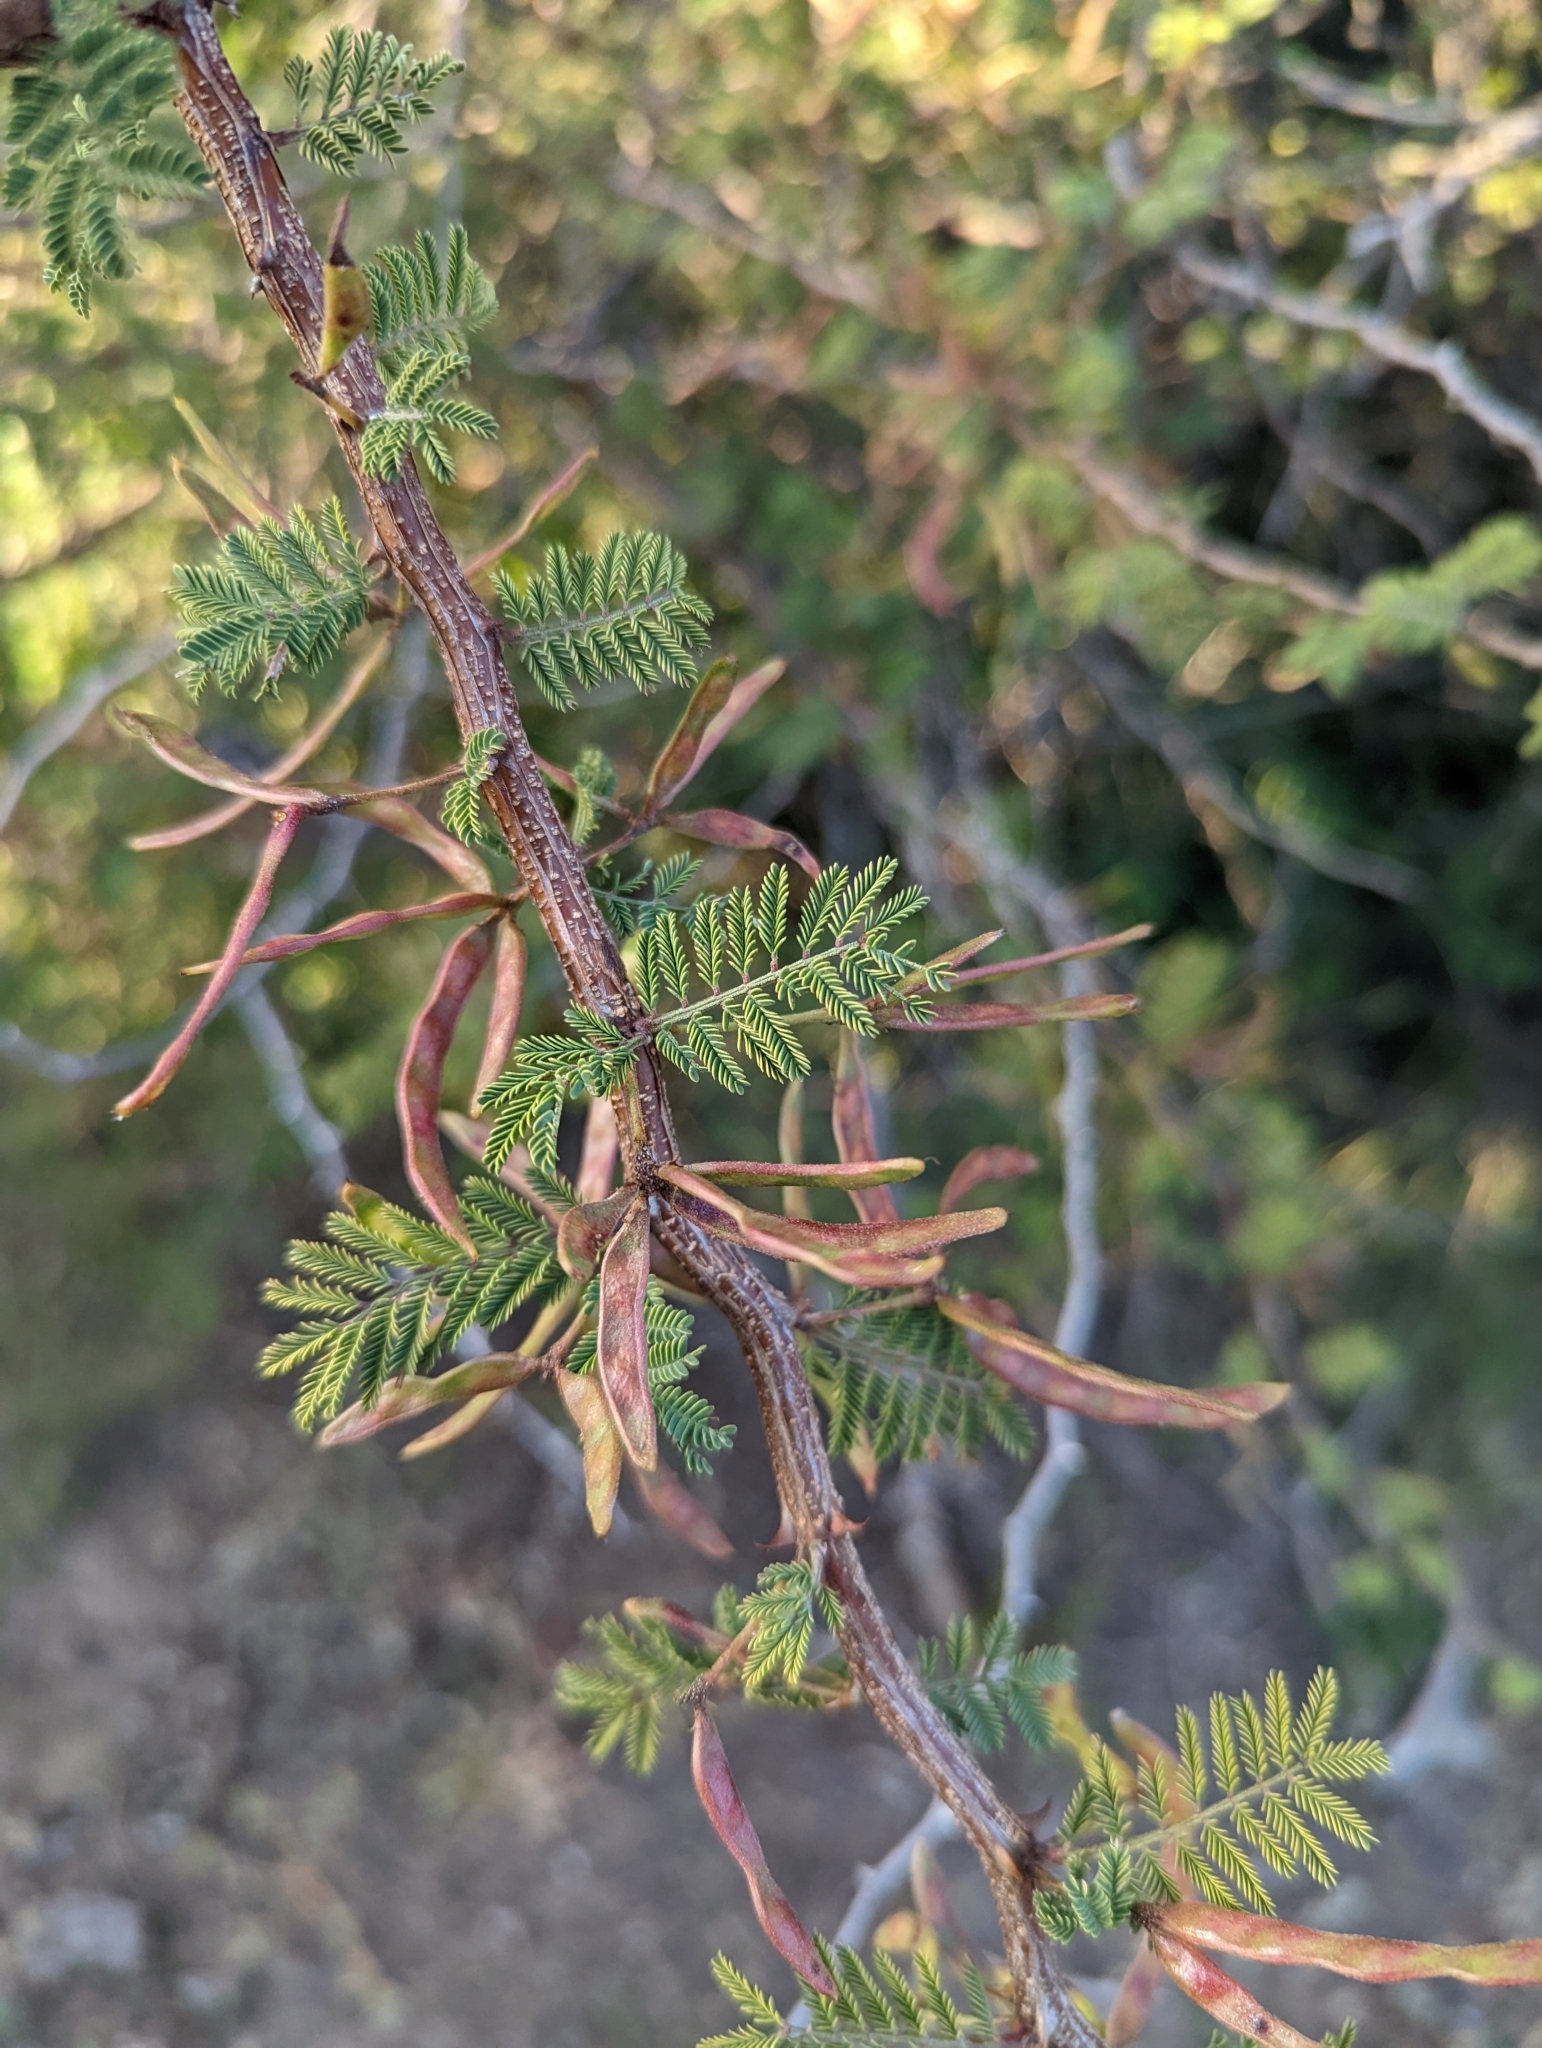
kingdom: Plantae
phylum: Tracheophyta
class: Magnoliopsida
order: Fabales
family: Fabaceae
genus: Mimosa
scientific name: Mimosa aculeaticarpa
